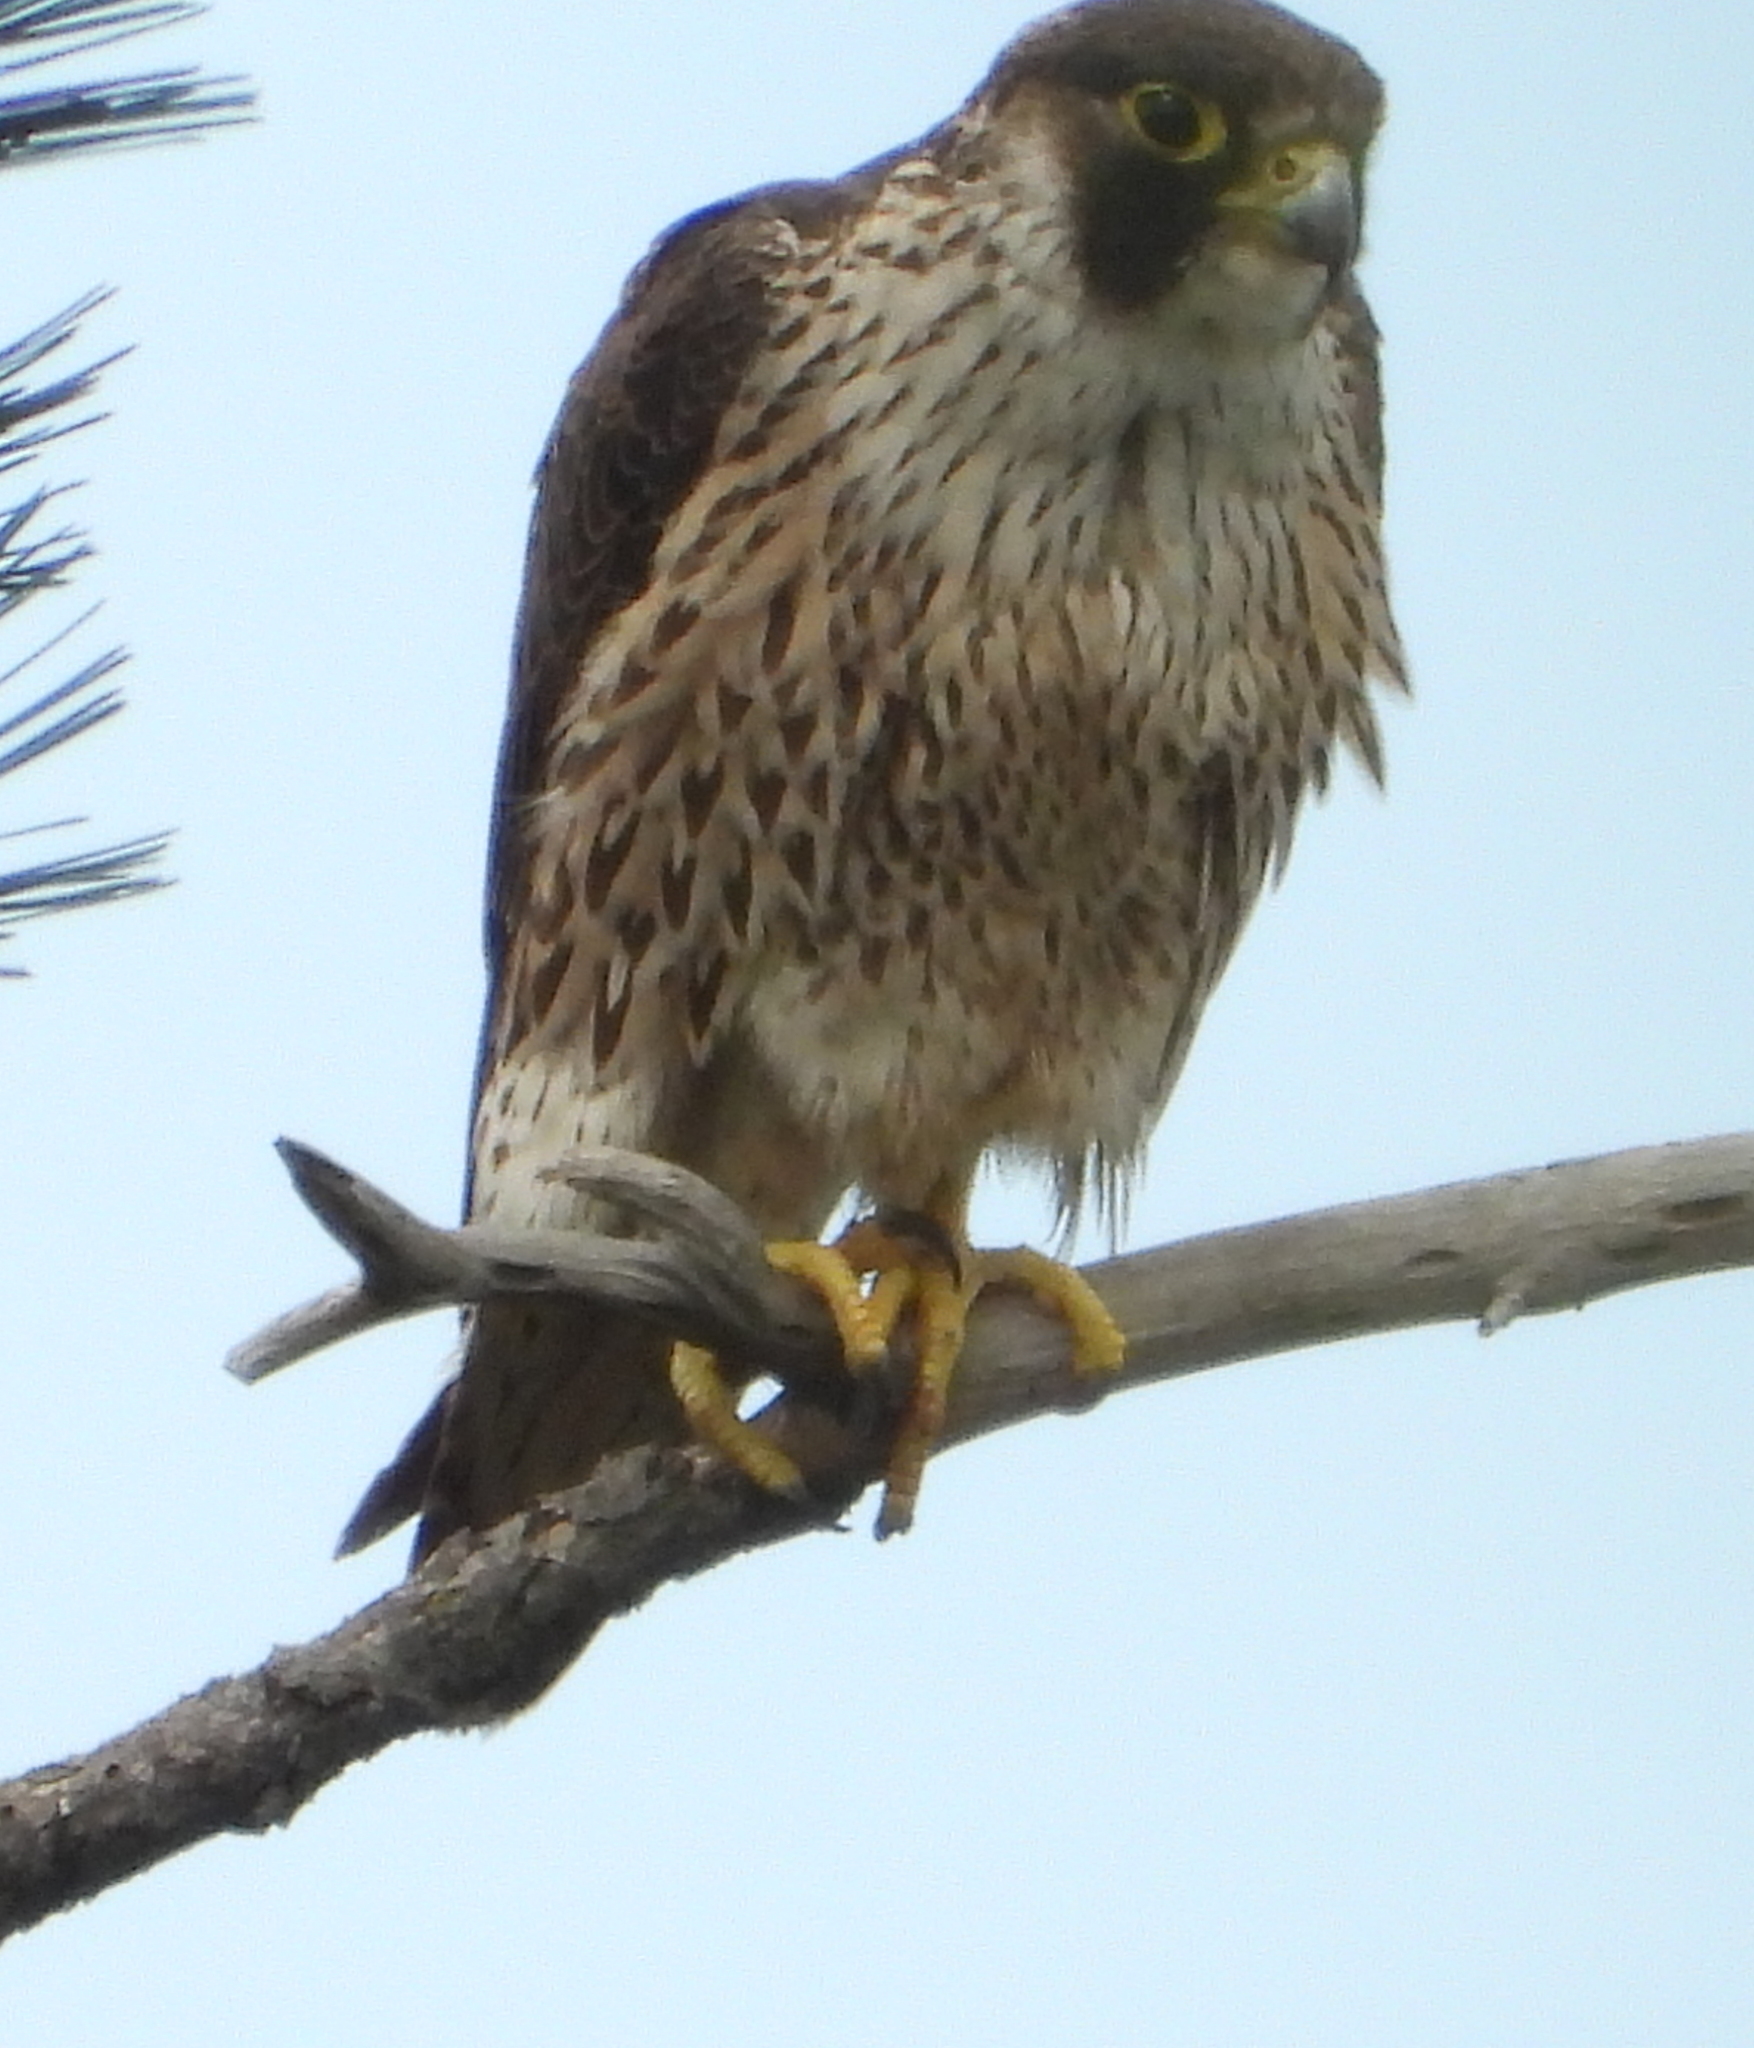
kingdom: Animalia
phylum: Chordata
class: Aves
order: Falconiformes
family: Falconidae
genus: Falco
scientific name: Falco peregrinus
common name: Peregrine falcon
